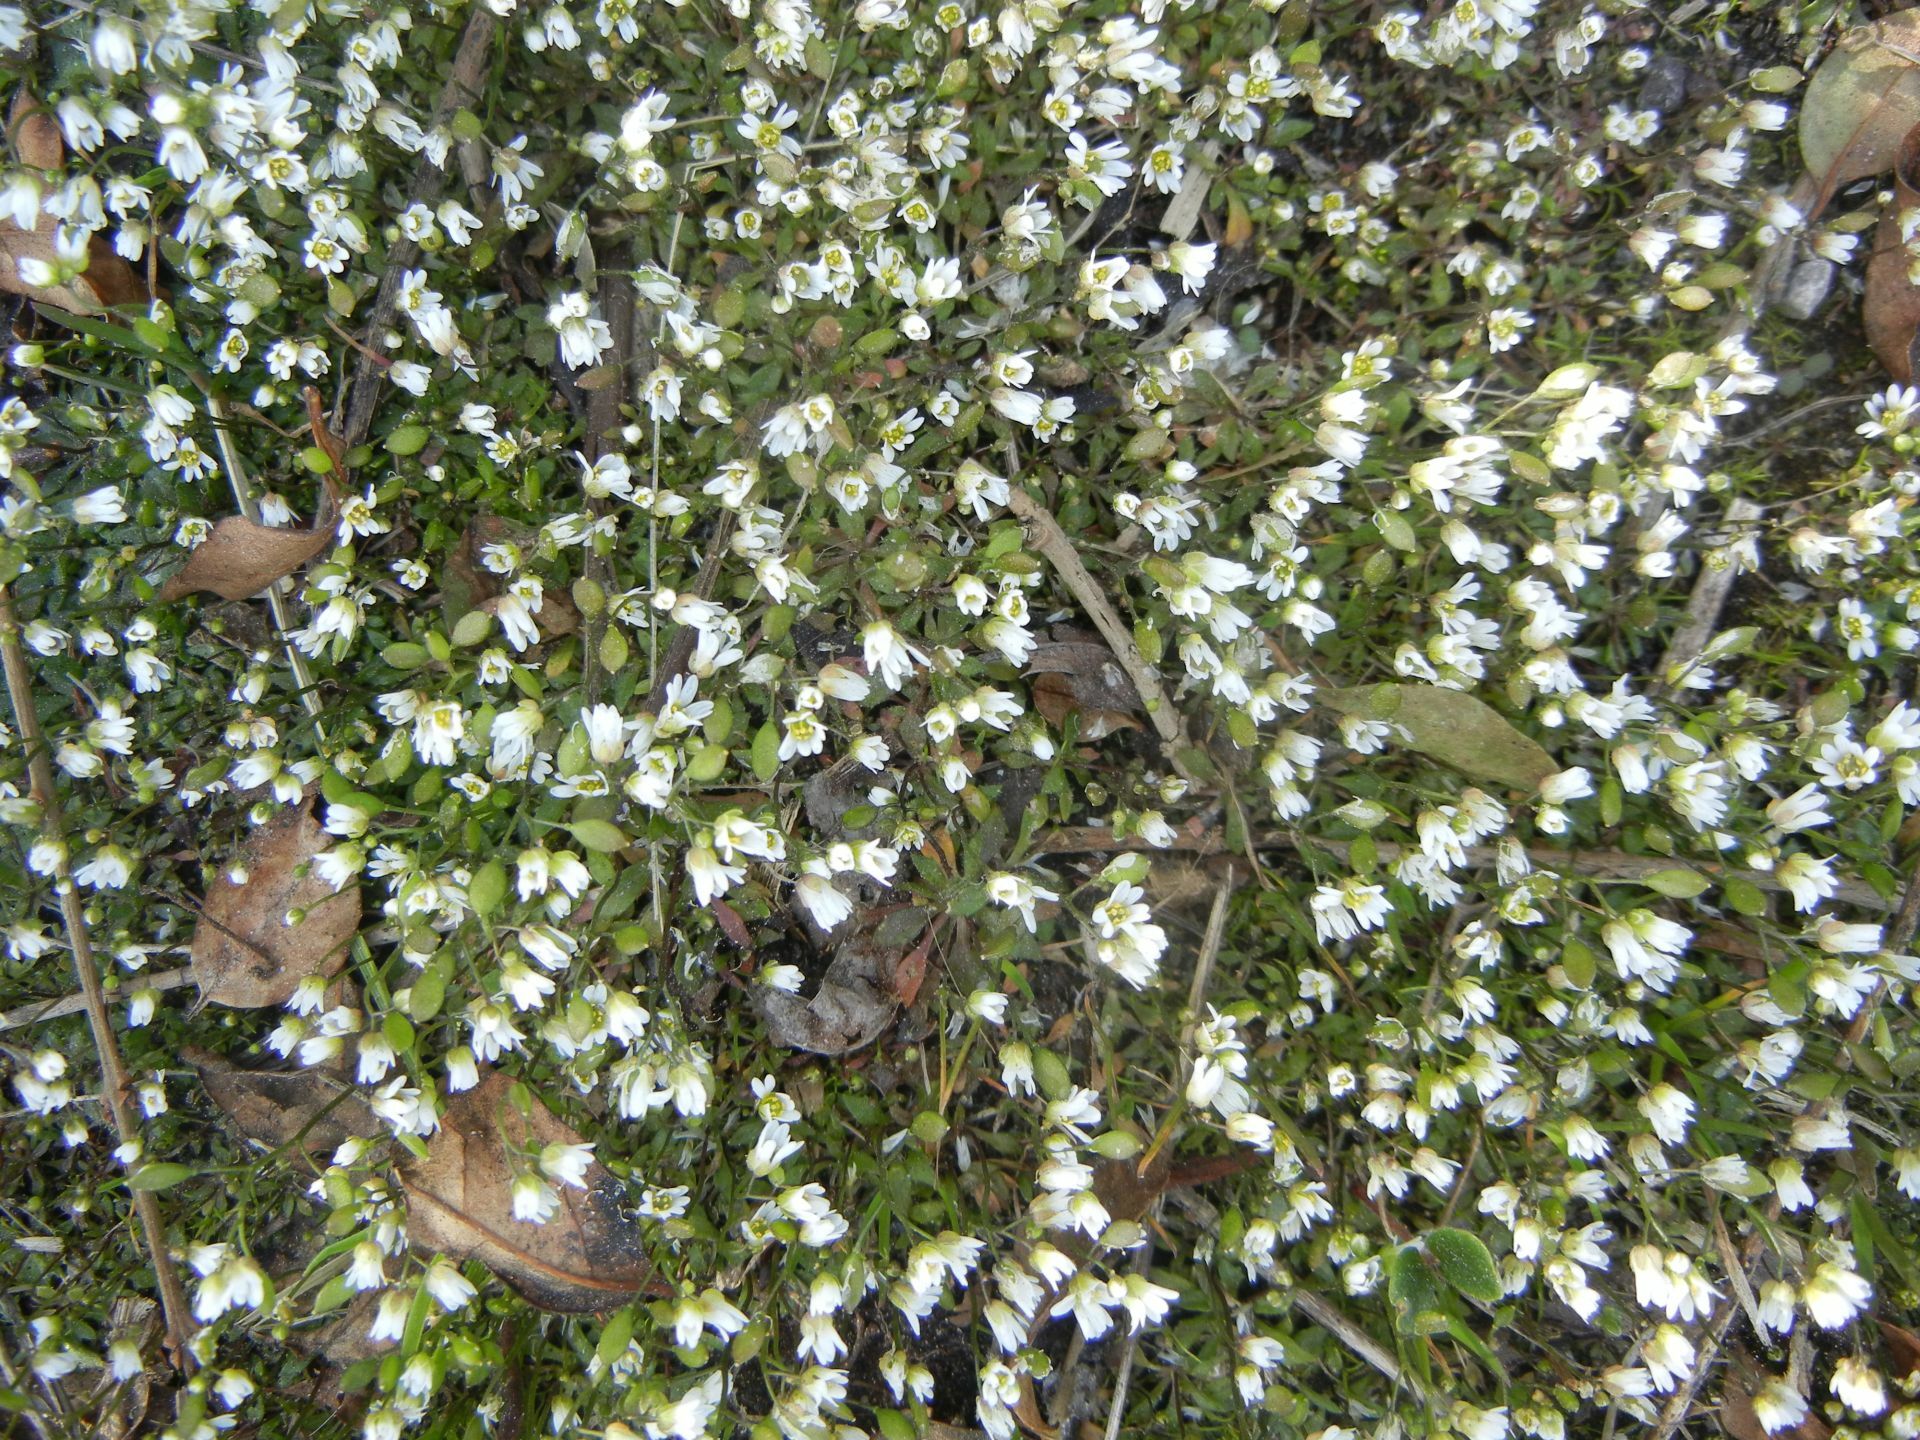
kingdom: Plantae
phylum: Tracheophyta
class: Magnoliopsida
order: Brassicales
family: Brassicaceae
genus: Draba
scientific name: Draba verna
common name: Spring draba
